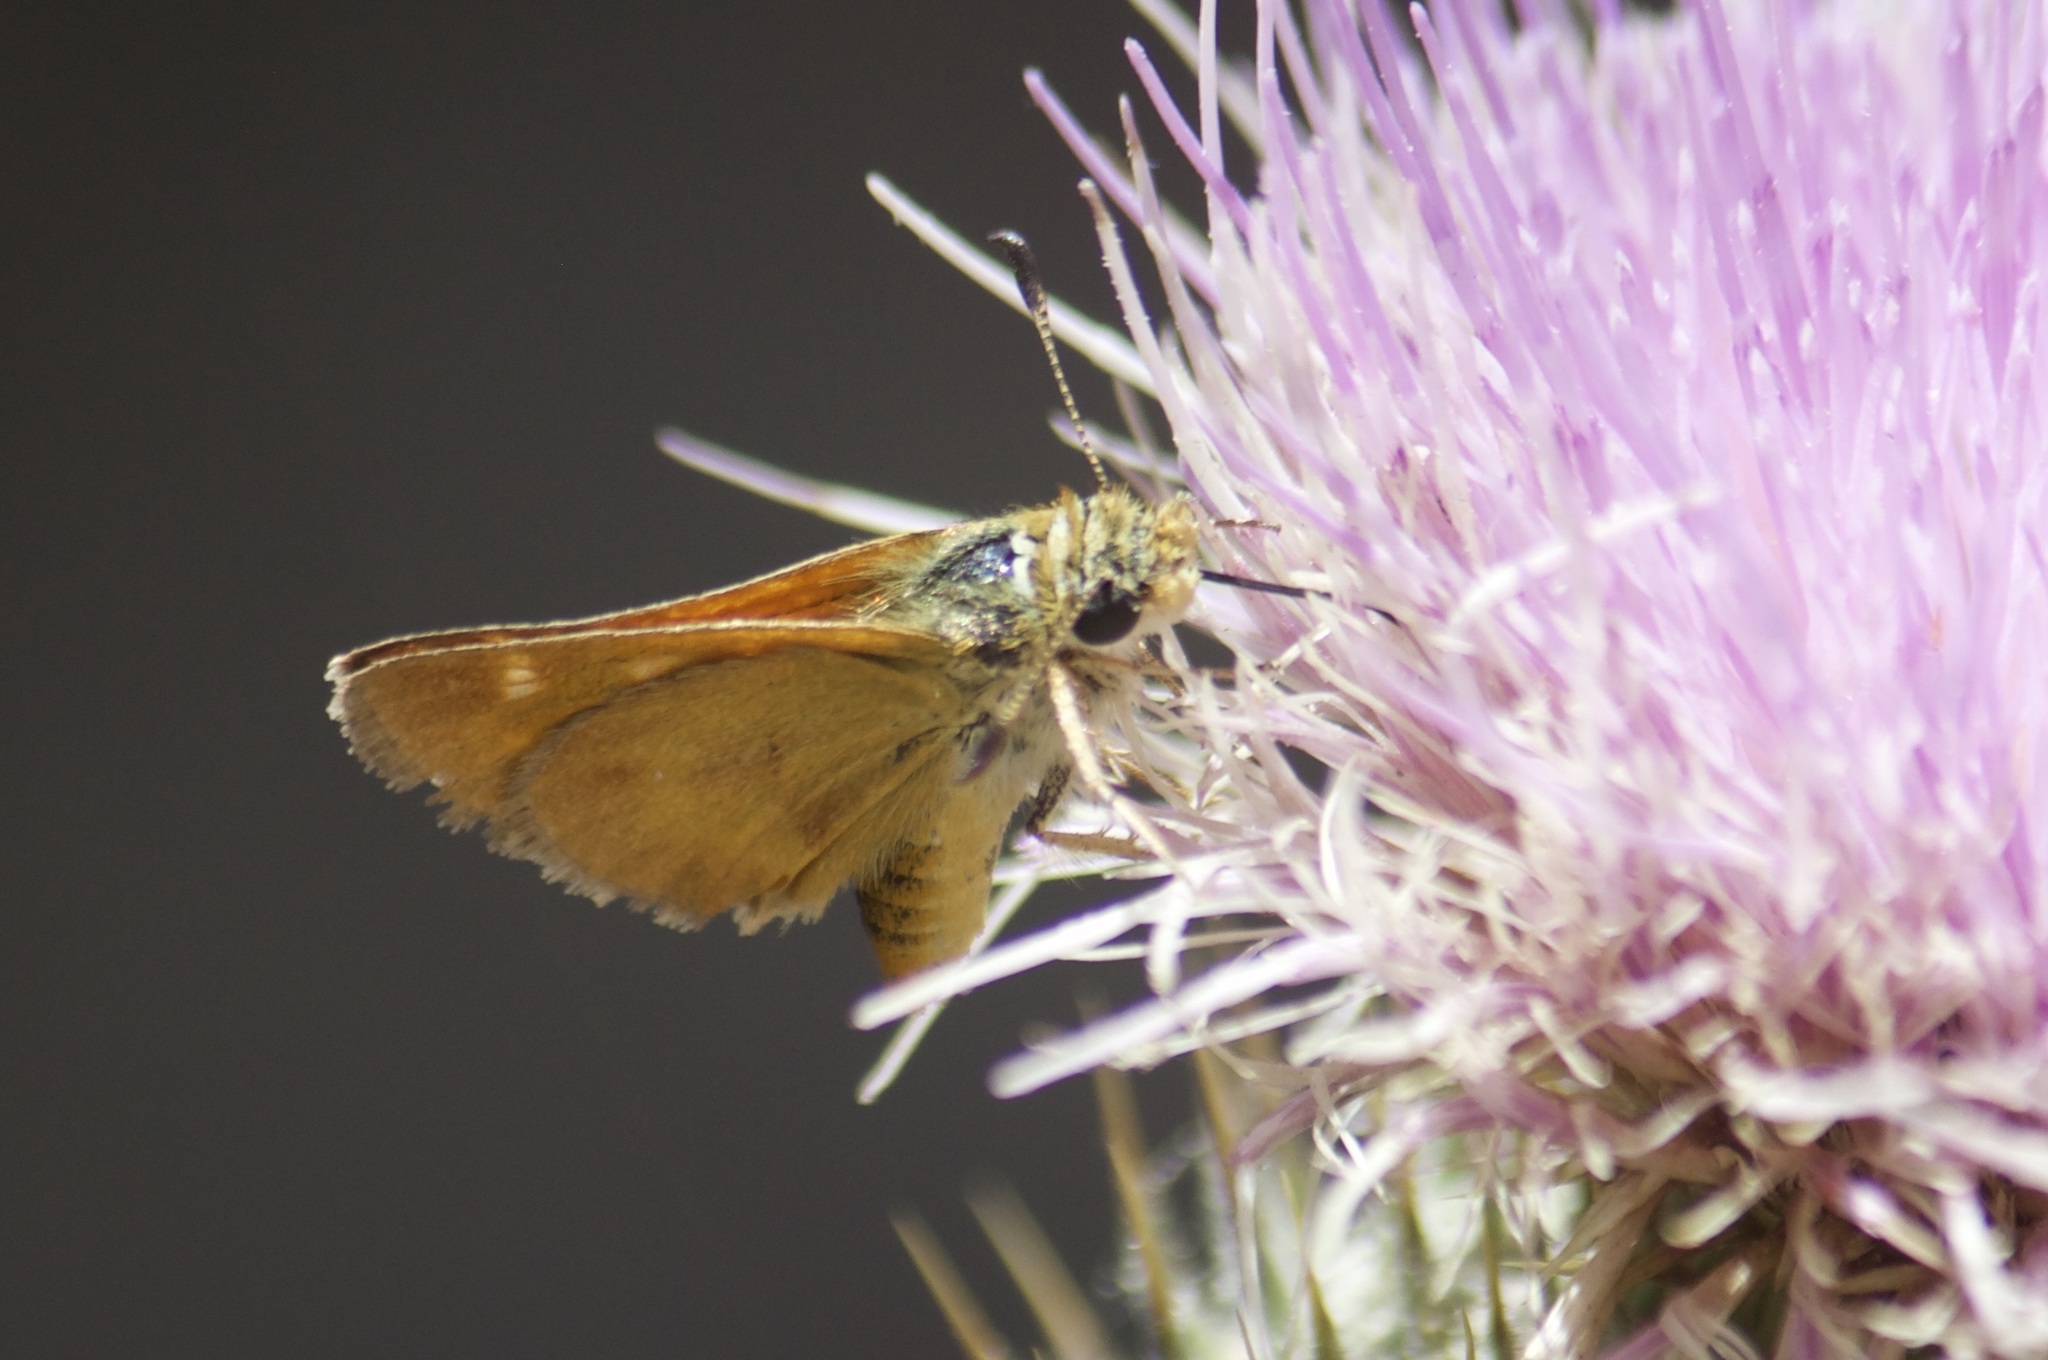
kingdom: Animalia
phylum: Arthropoda
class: Insecta
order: Lepidoptera
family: Hesperiidae
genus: Ochlodes
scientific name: Ochlodes agricola
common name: Rural skipper
